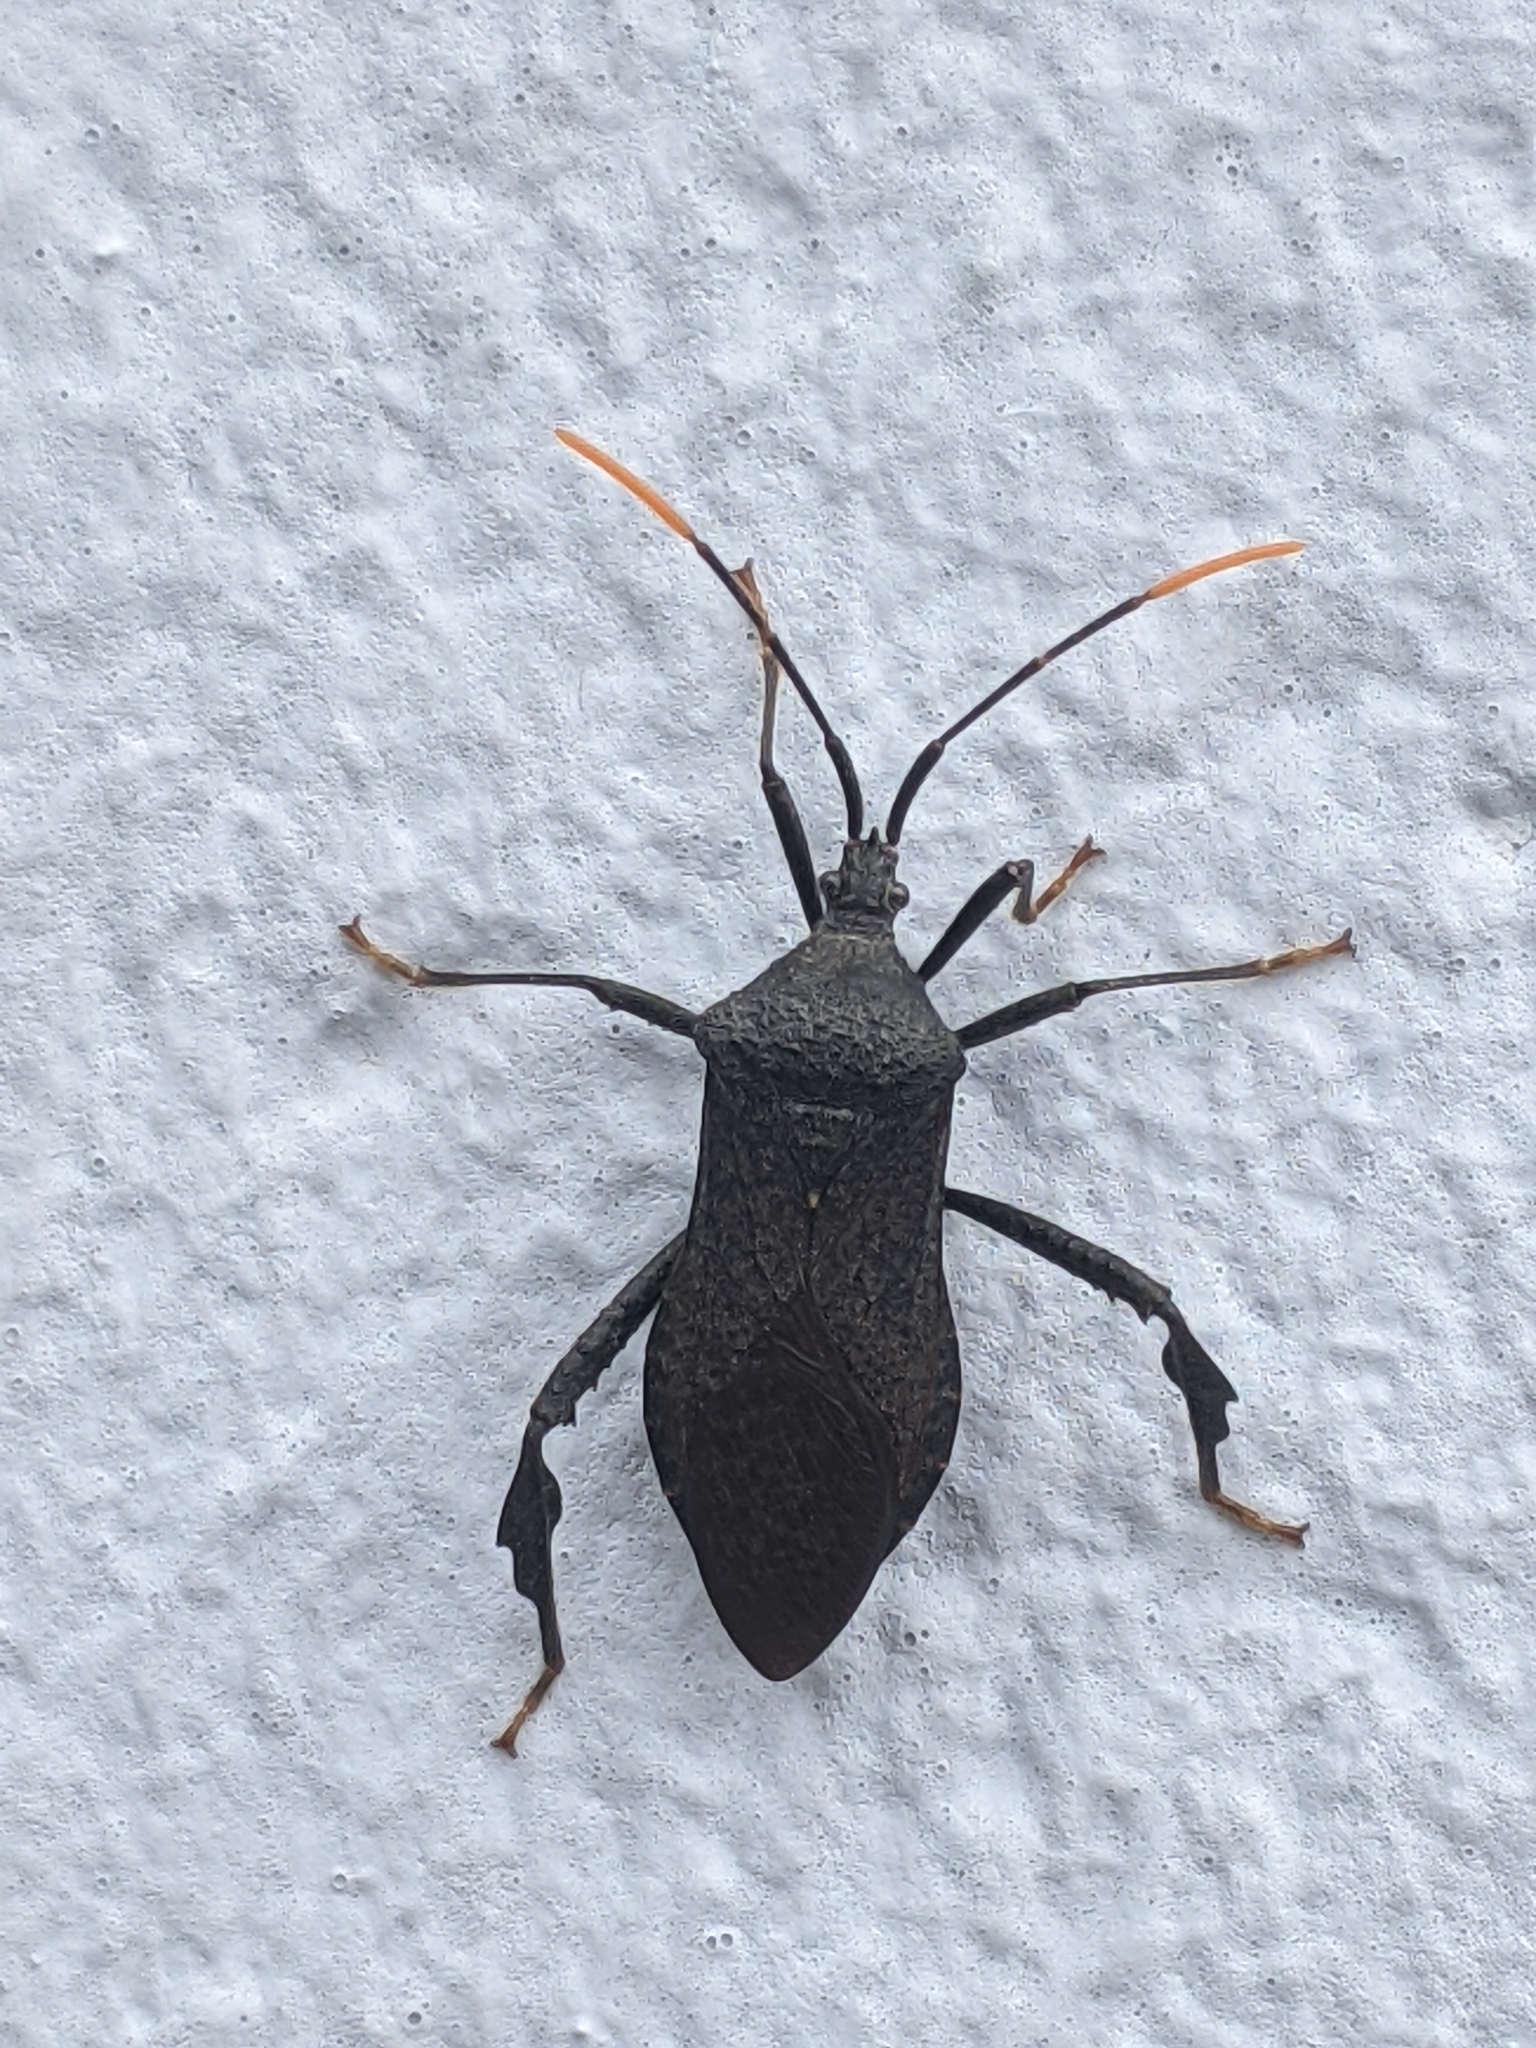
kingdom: Animalia
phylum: Arthropoda
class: Insecta
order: Hemiptera
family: Coreidae
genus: Acanthocephala
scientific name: Acanthocephala terminalis
